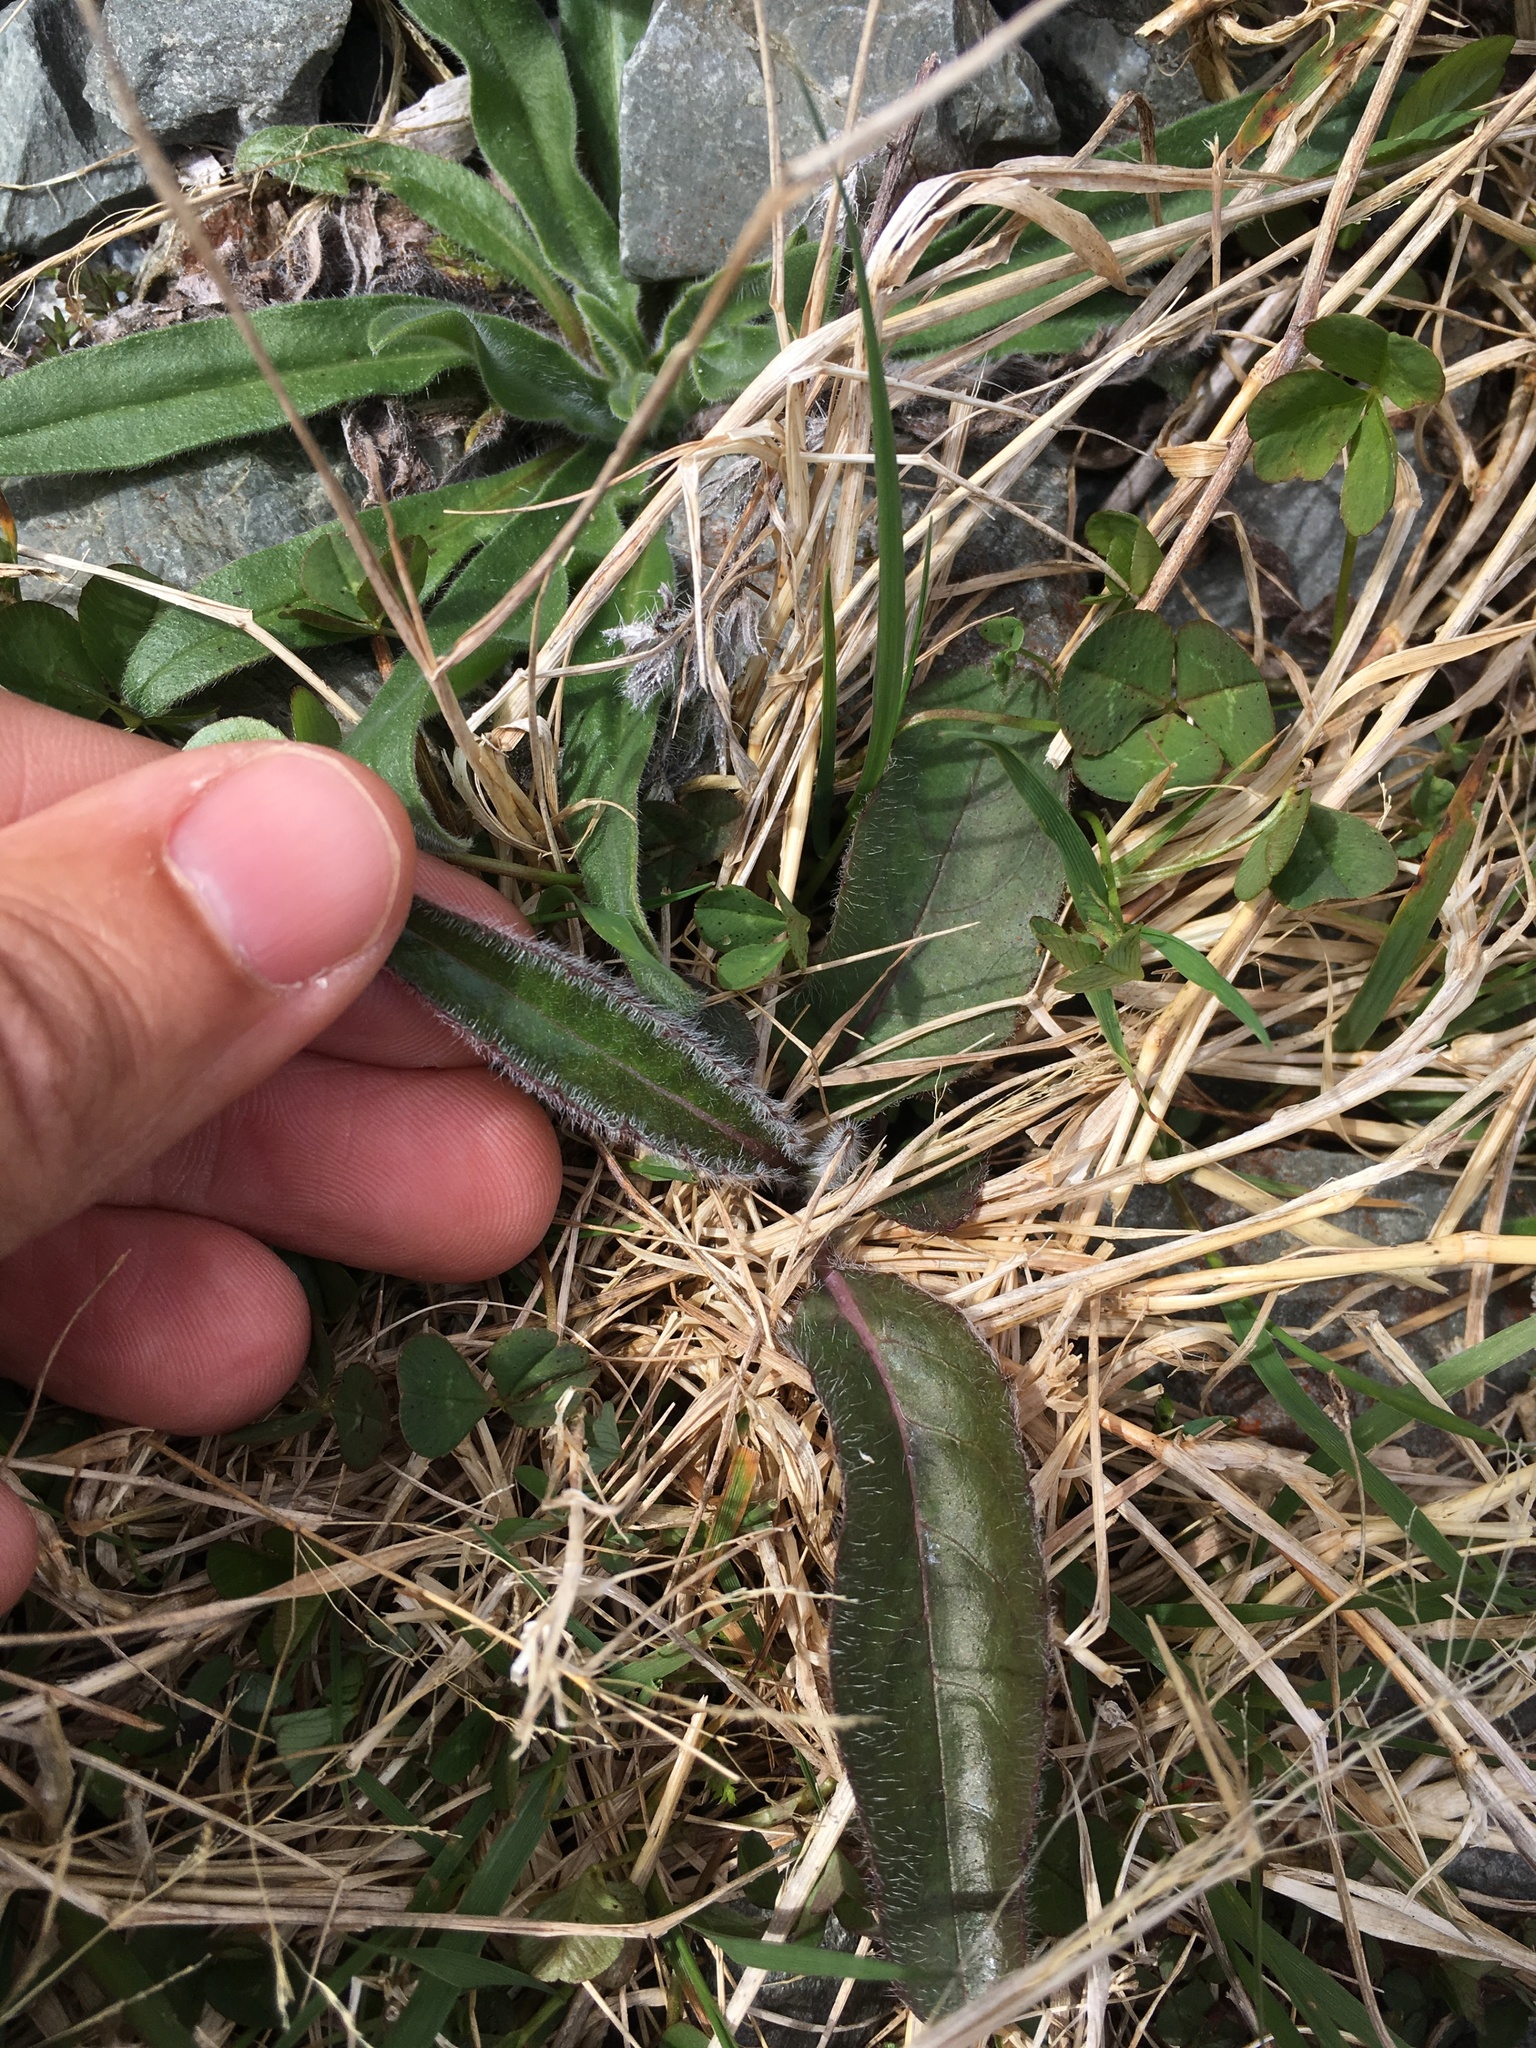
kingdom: Plantae
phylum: Tracheophyta
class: Magnoliopsida
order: Asterales
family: Asteraceae
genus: Hieracium
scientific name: Hieracium lepidulum
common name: Irregular-toothed hawkweed
